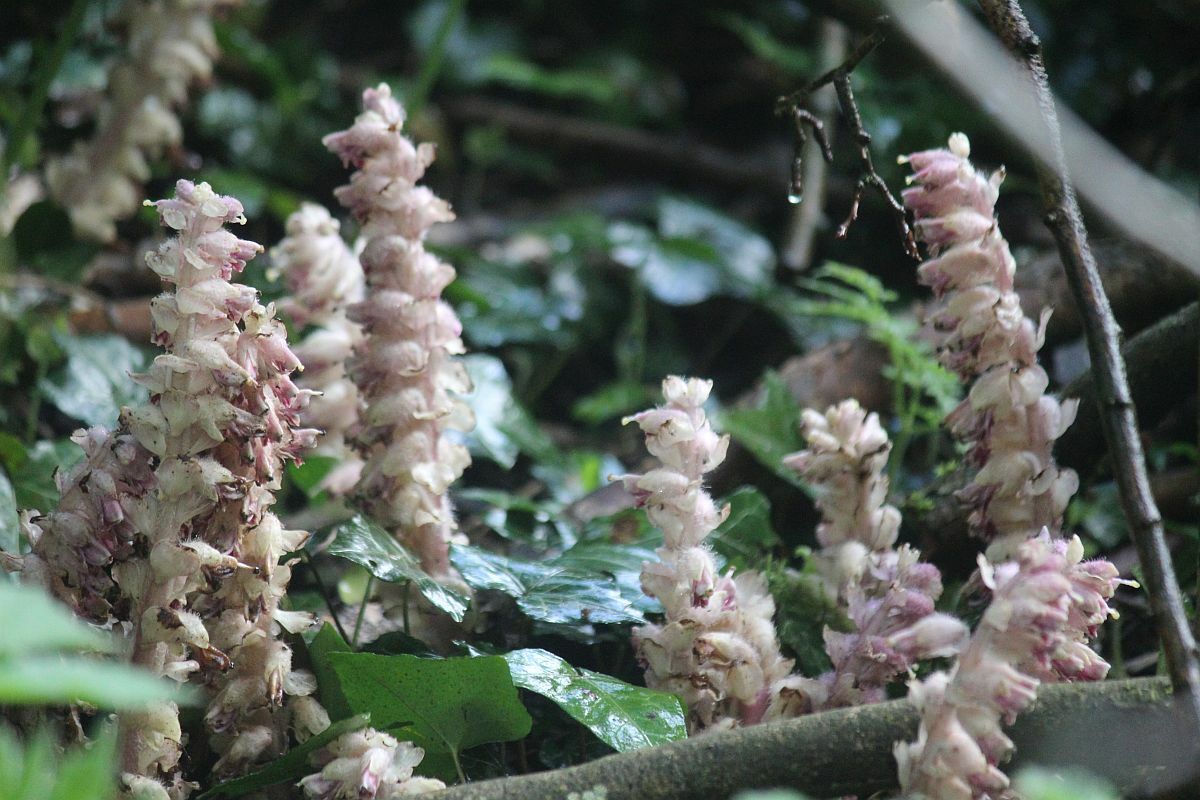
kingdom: Plantae
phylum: Tracheophyta
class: Magnoliopsida
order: Lamiales
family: Orobanchaceae
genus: Lathraea
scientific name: Lathraea squamaria
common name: Toothwort
